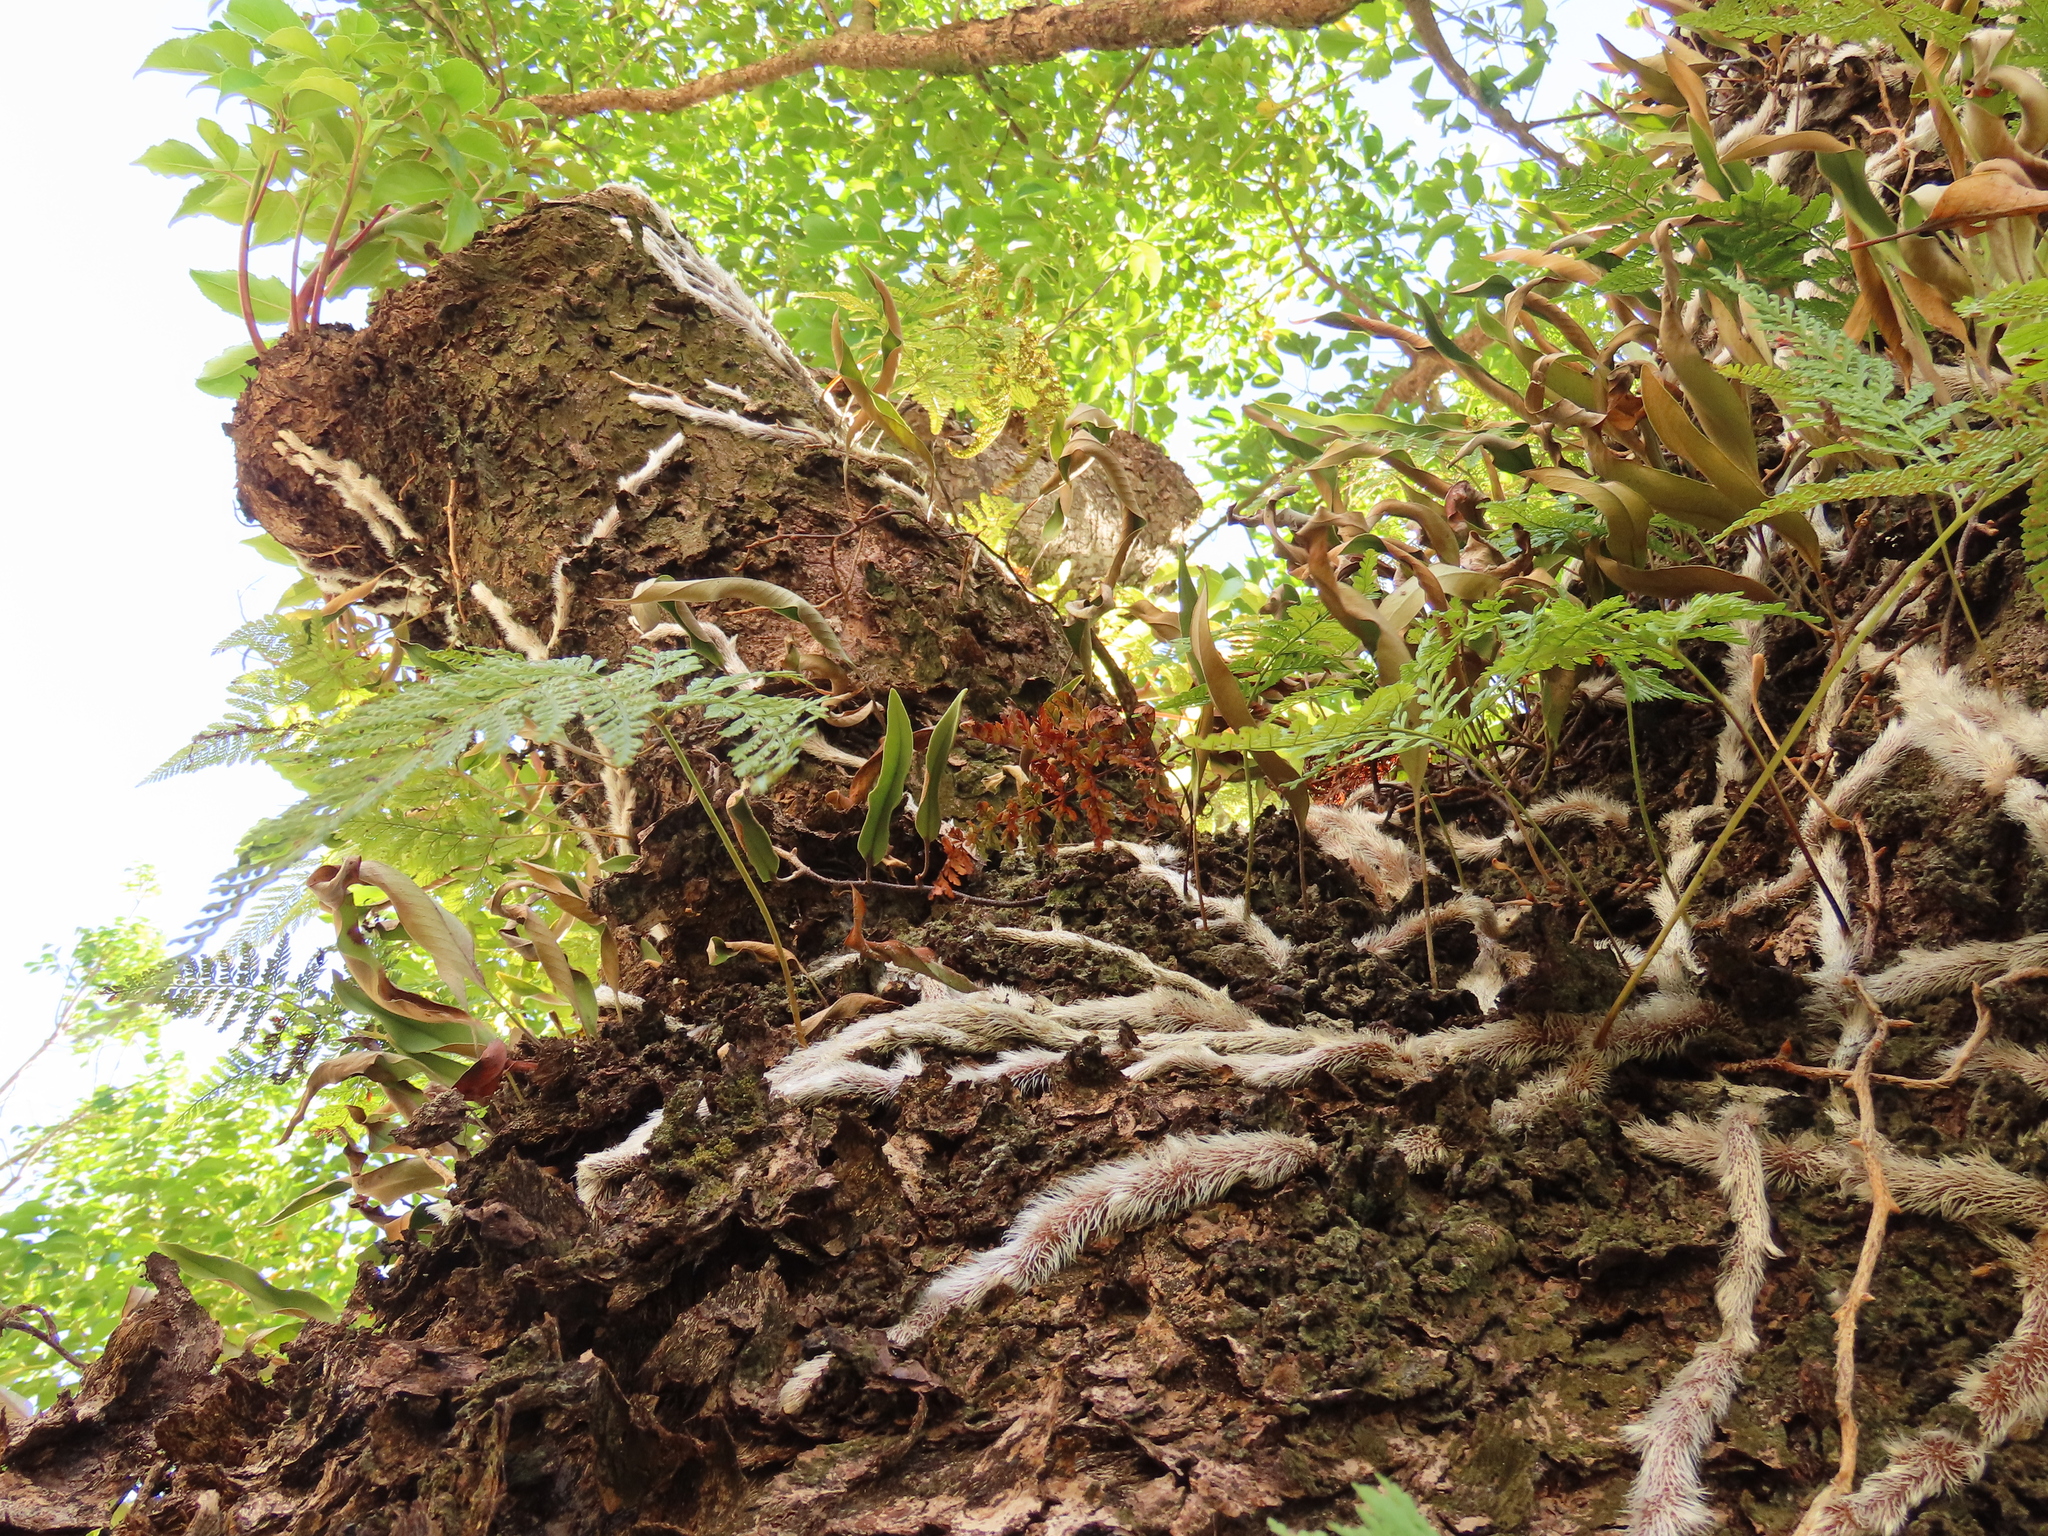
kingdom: Plantae
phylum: Tracheophyta
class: Polypodiopsida
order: Polypodiales
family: Davalliaceae
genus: Davallia
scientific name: Davallia griffithiana
